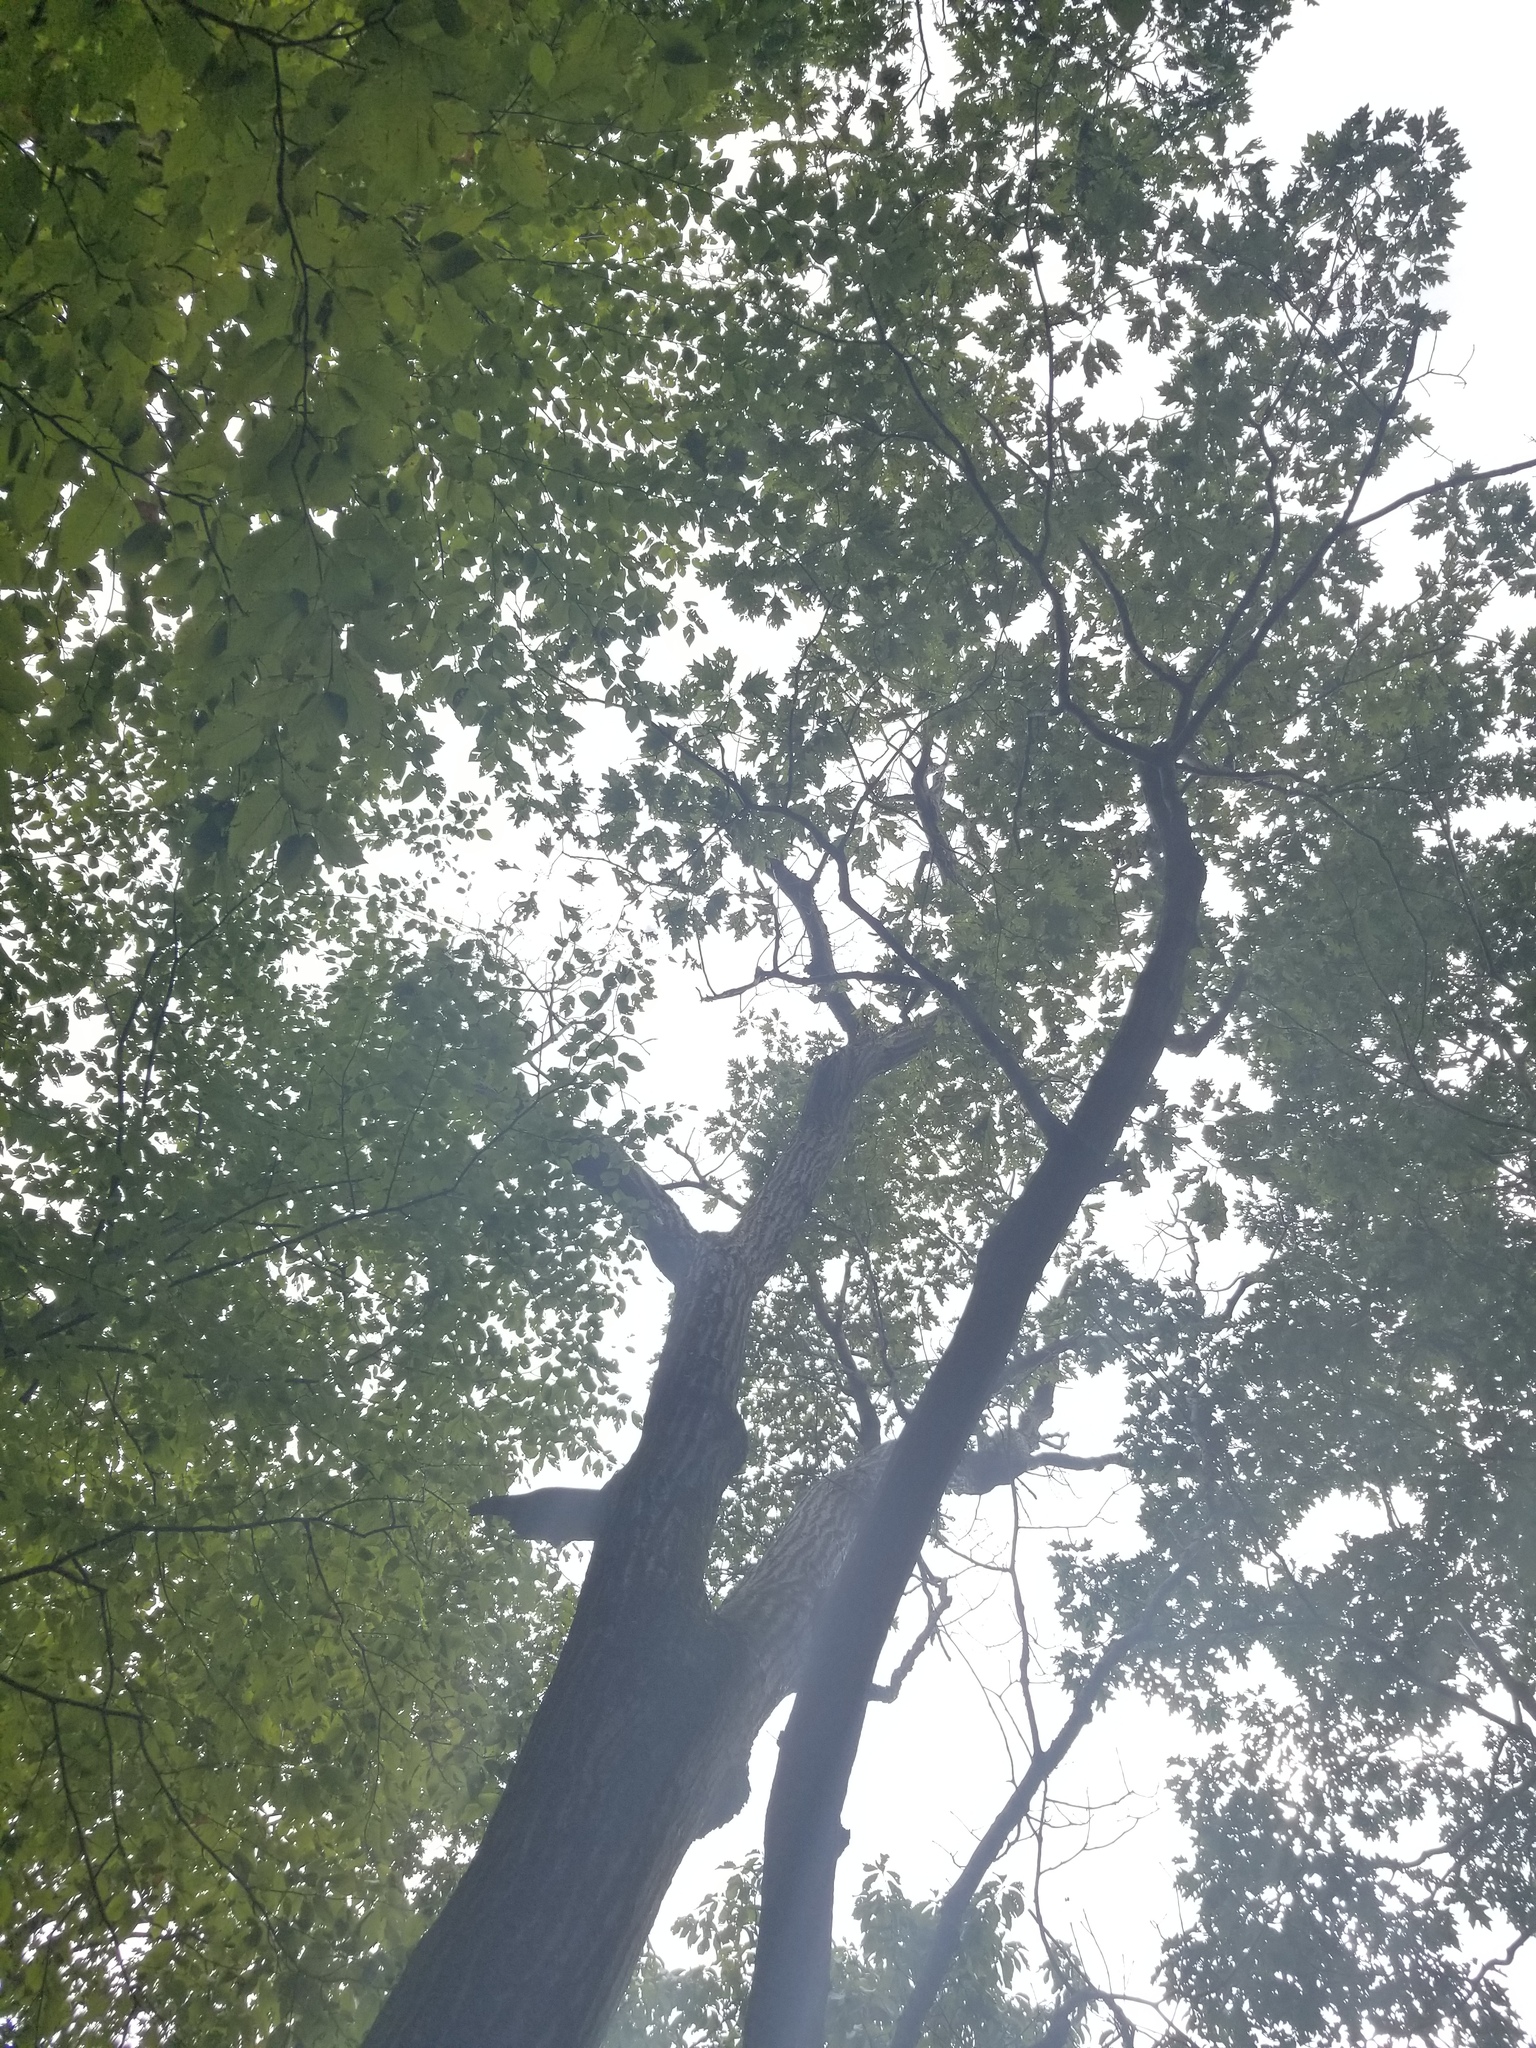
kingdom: Plantae
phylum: Tracheophyta
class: Magnoliopsida
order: Fagales
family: Fagaceae
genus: Quercus
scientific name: Quercus rubra
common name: Red oak
